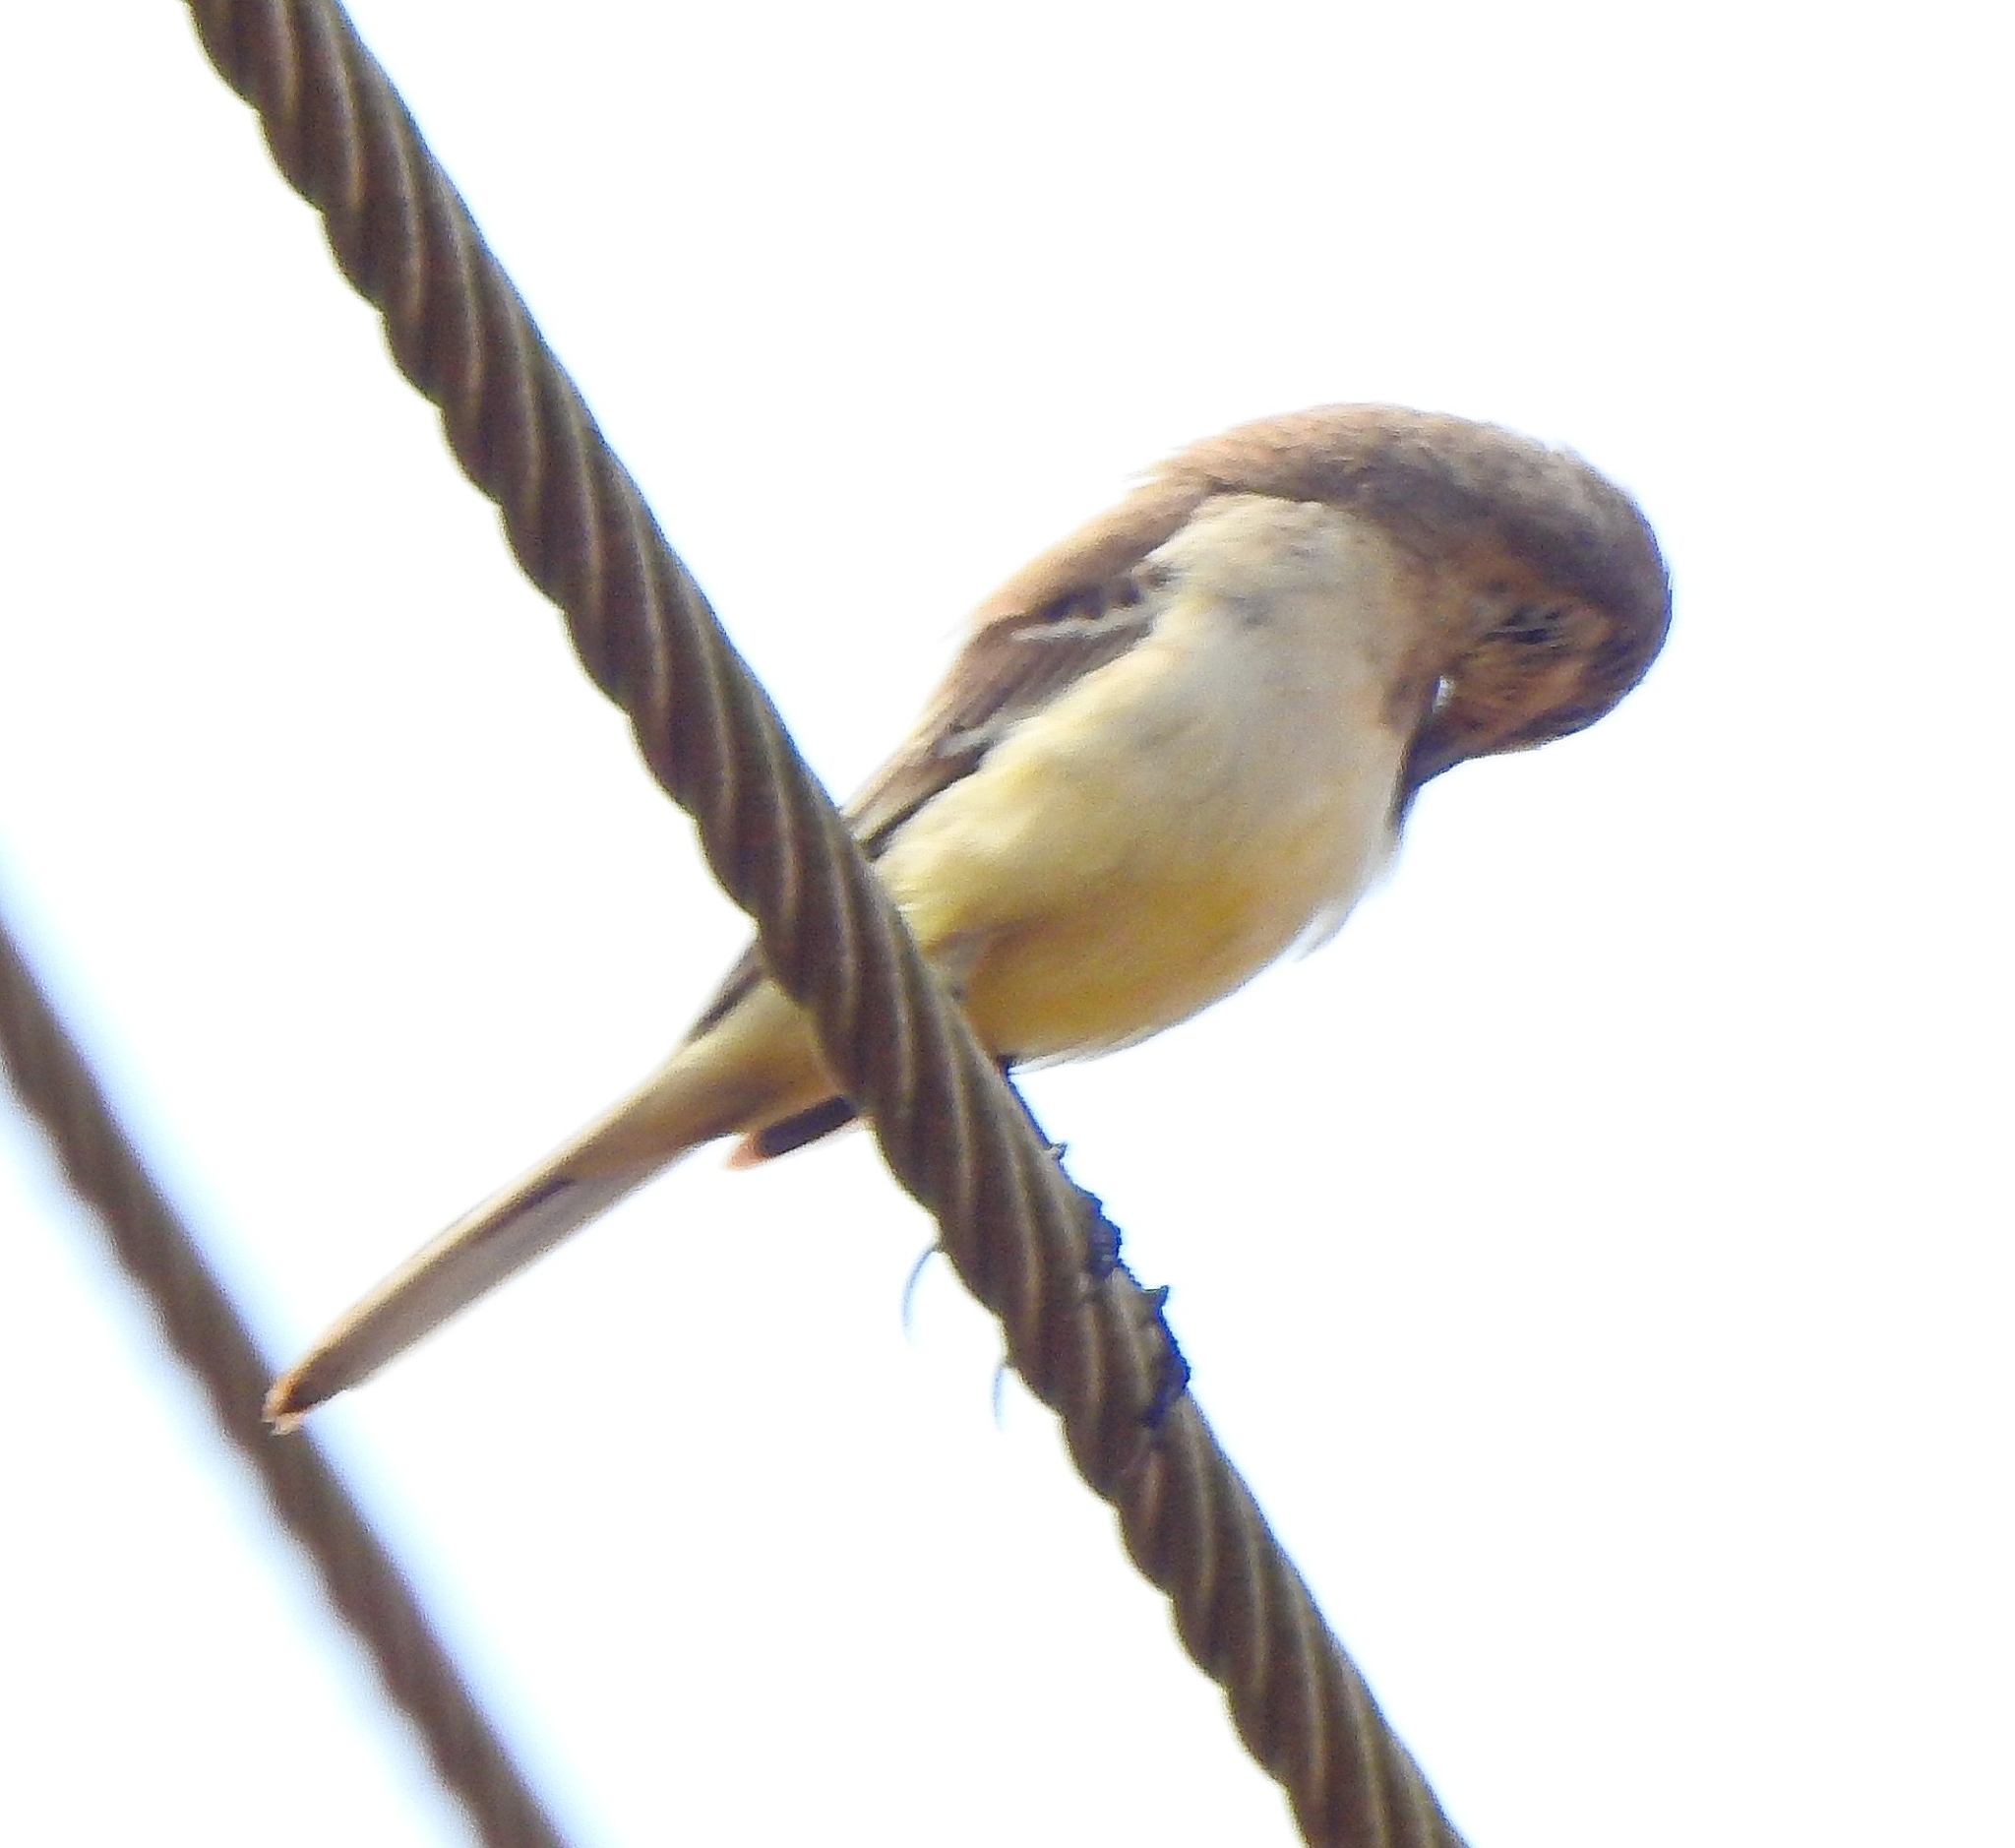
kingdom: Animalia
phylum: Chordata
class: Aves
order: Passeriformes
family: Motacillidae
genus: Motacilla
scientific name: Motacilla flava
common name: Western yellow wagtail
